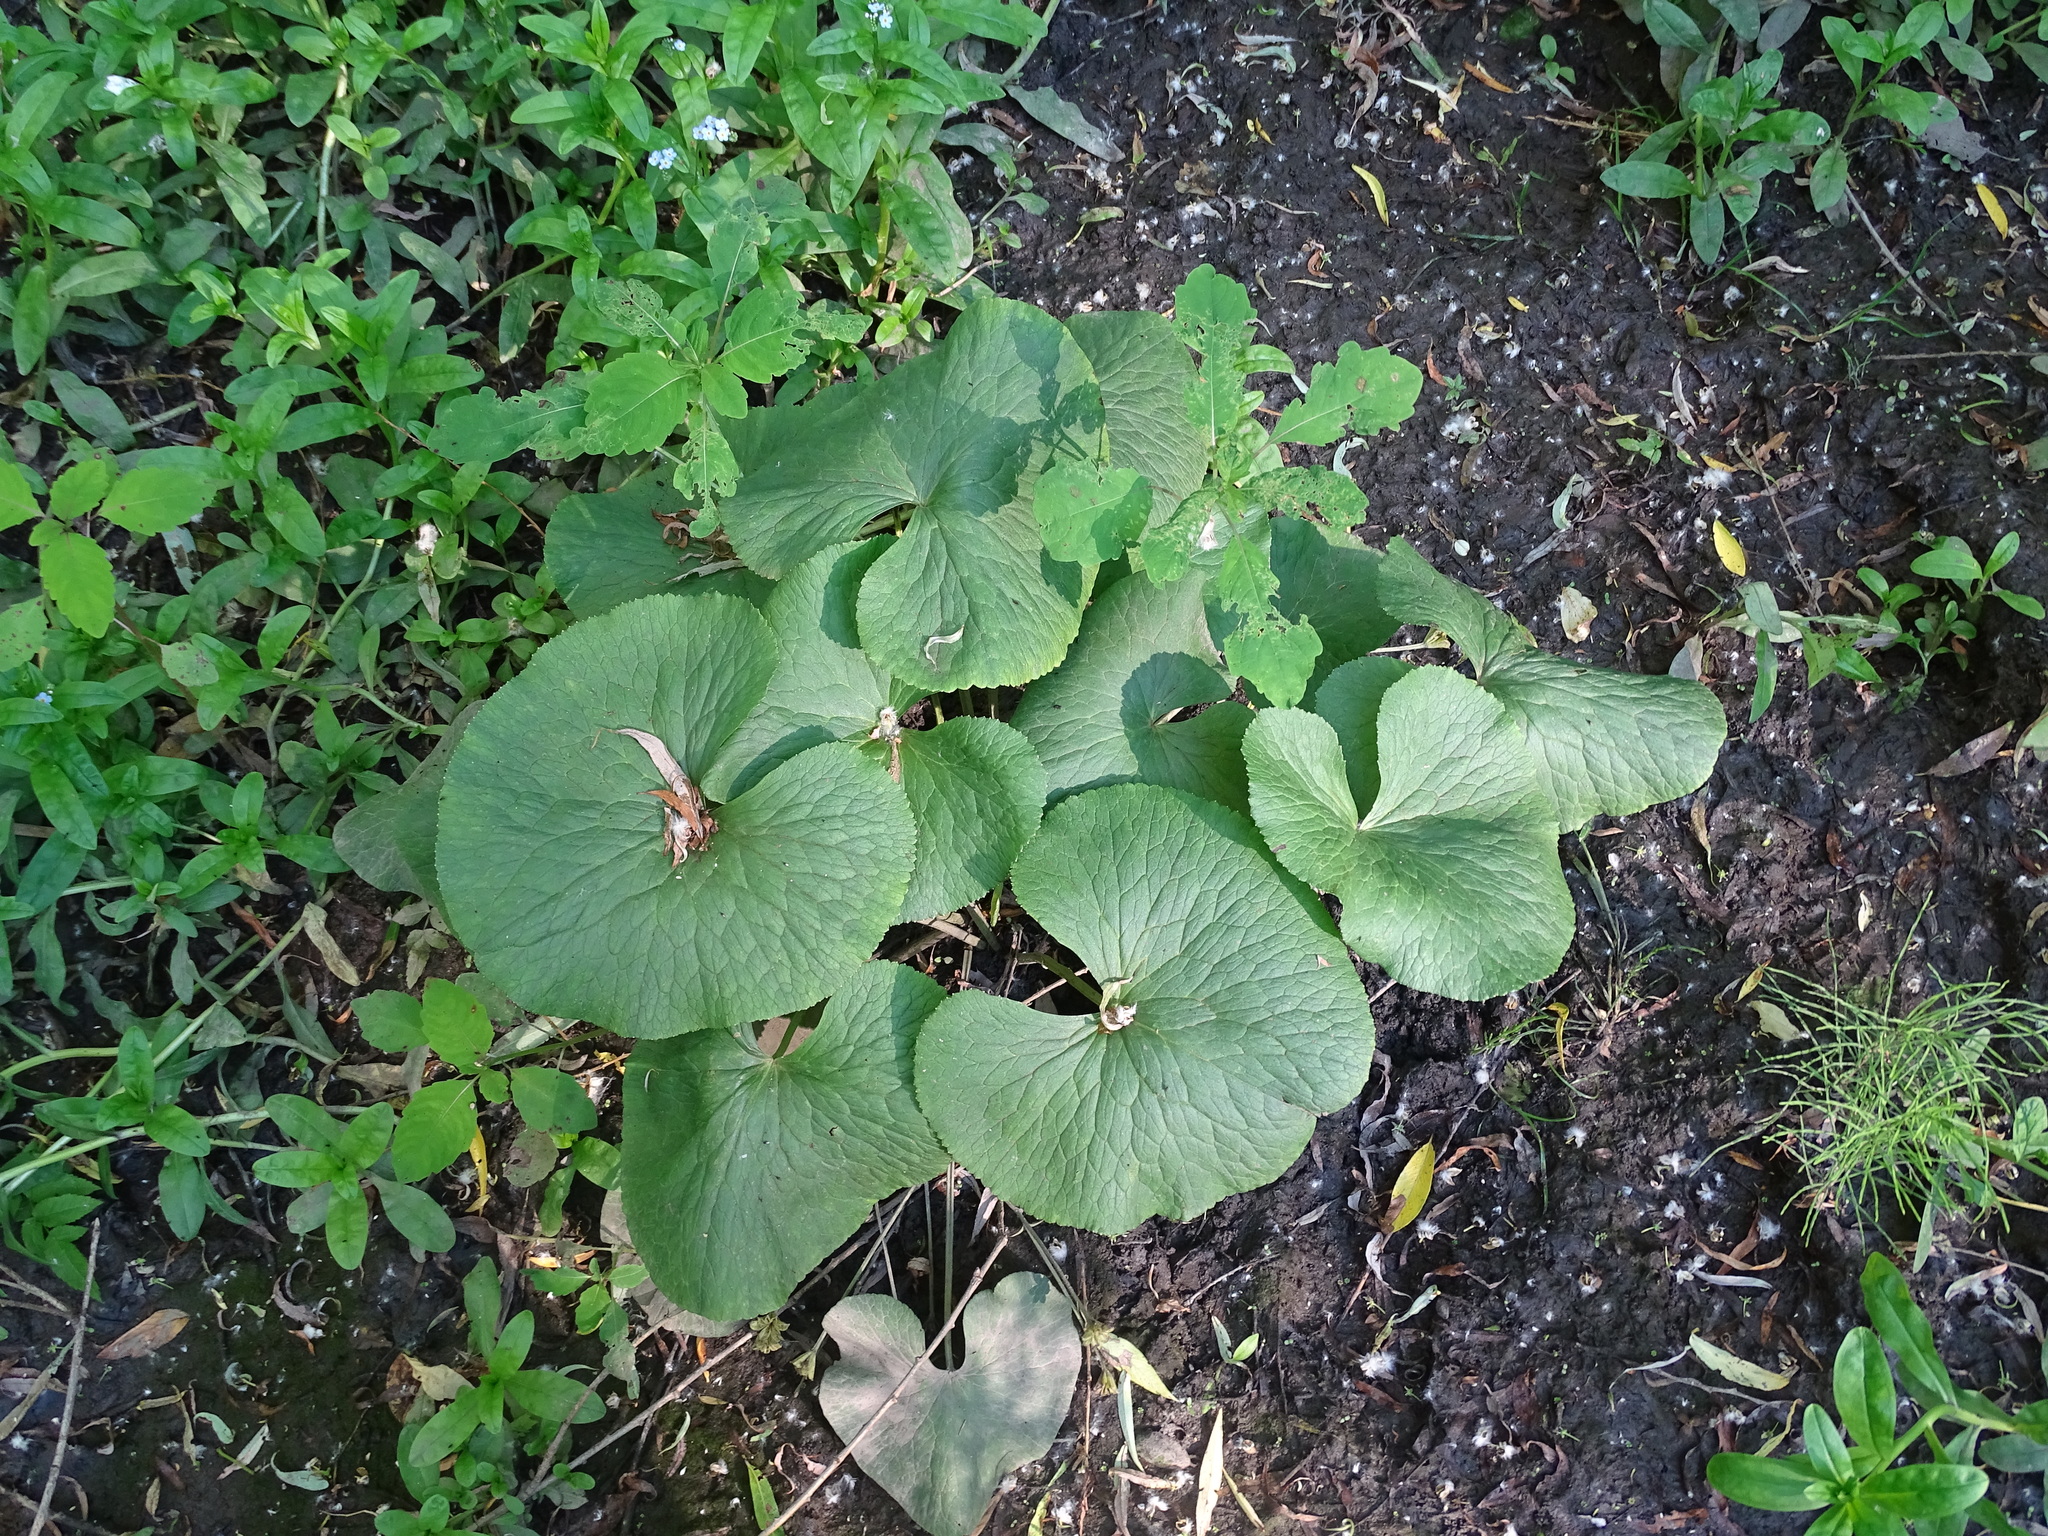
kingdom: Plantae
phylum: Tracheophyta
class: Magnoliopsida
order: Ranunculales
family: Ranunculaceae
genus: Caltha
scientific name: Caltha palustris
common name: Marsh marigold
